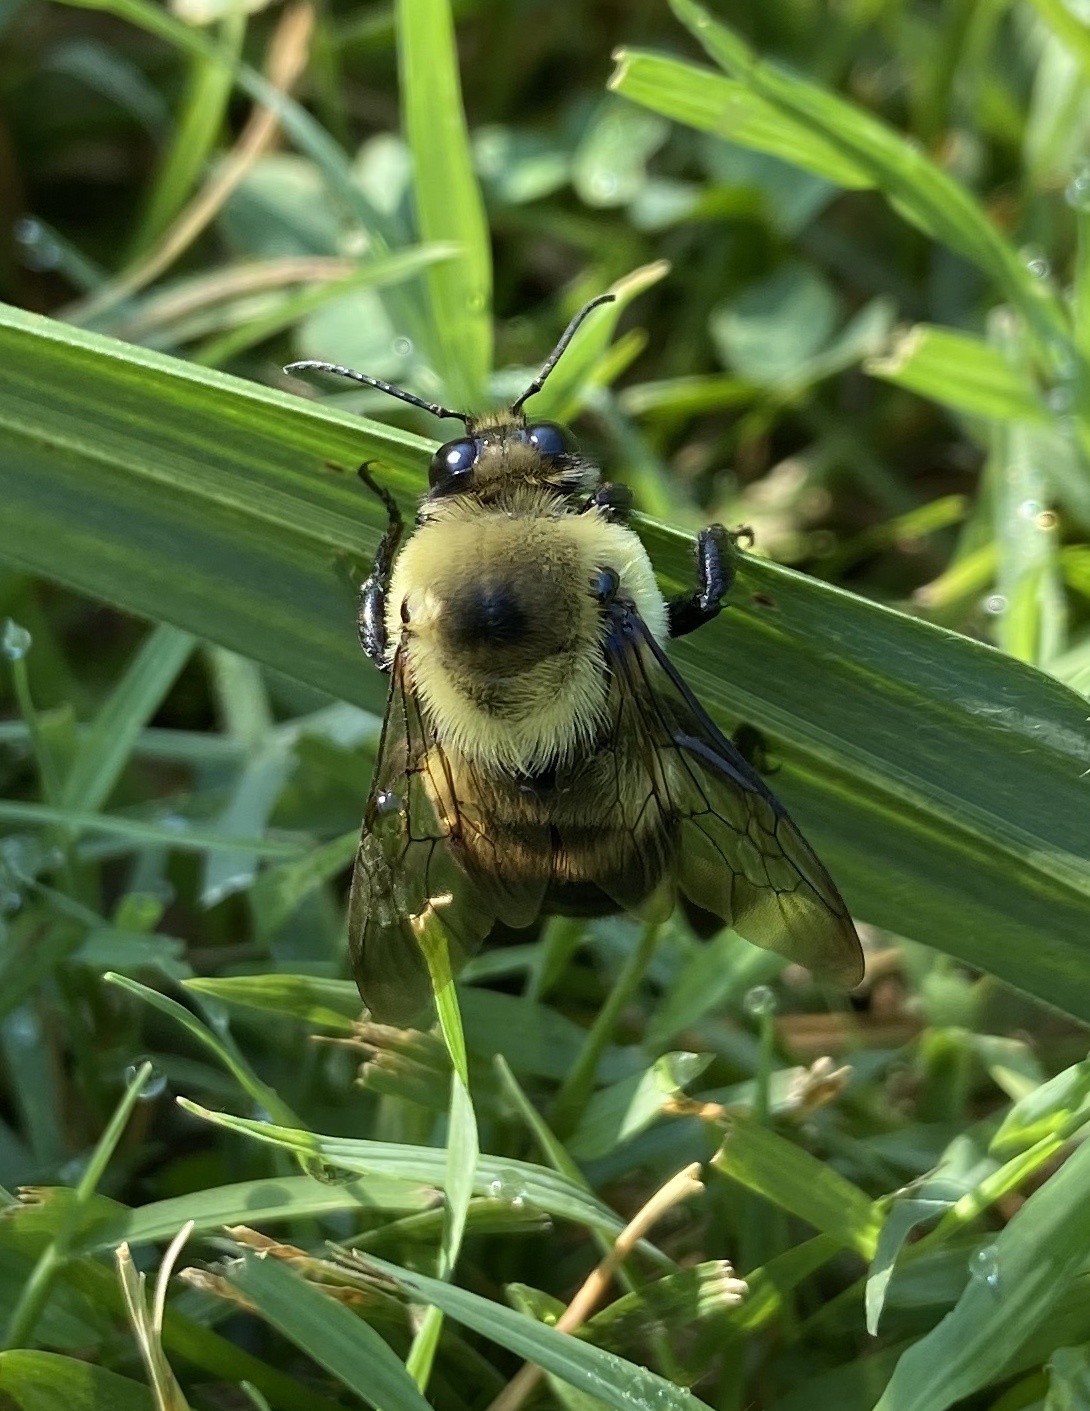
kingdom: Animalia
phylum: Arthropoda
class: Insecta
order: Hymenoptera
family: Apidae
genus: Bombus
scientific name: Bombus griseocollis
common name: Brown-belted bumble bee
